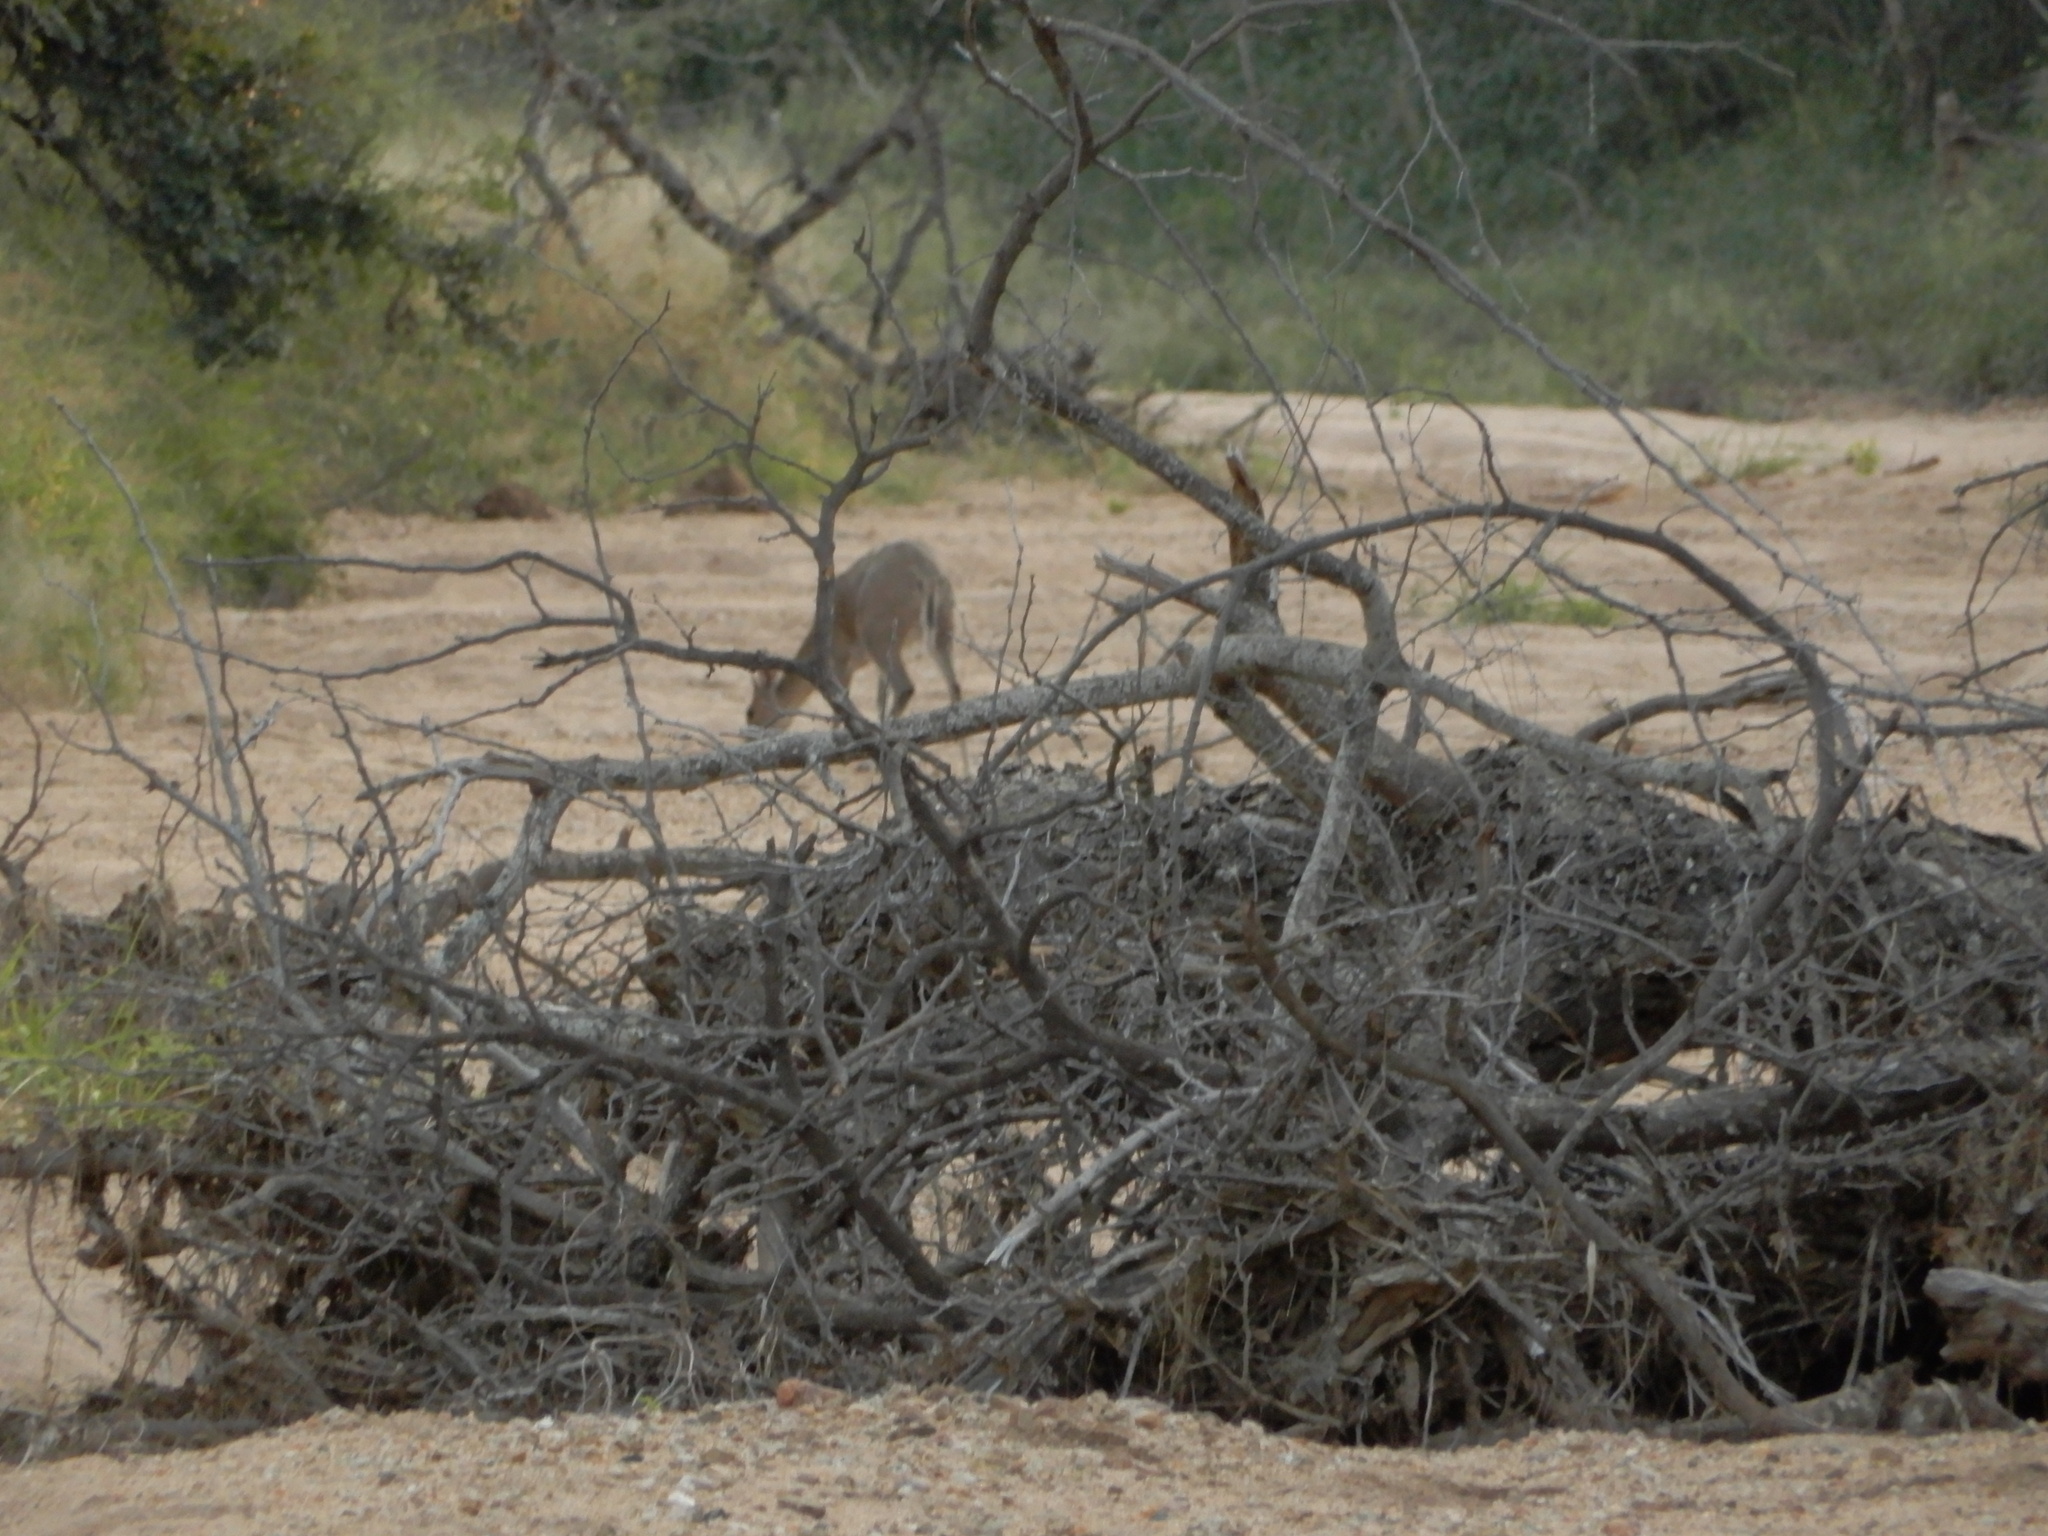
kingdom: Animalia
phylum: Chordata
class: Mammalia
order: Artiodactyla
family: Bovidae
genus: Sylvicapra
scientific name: Sylvicapra grimmia
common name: Bush duiker
